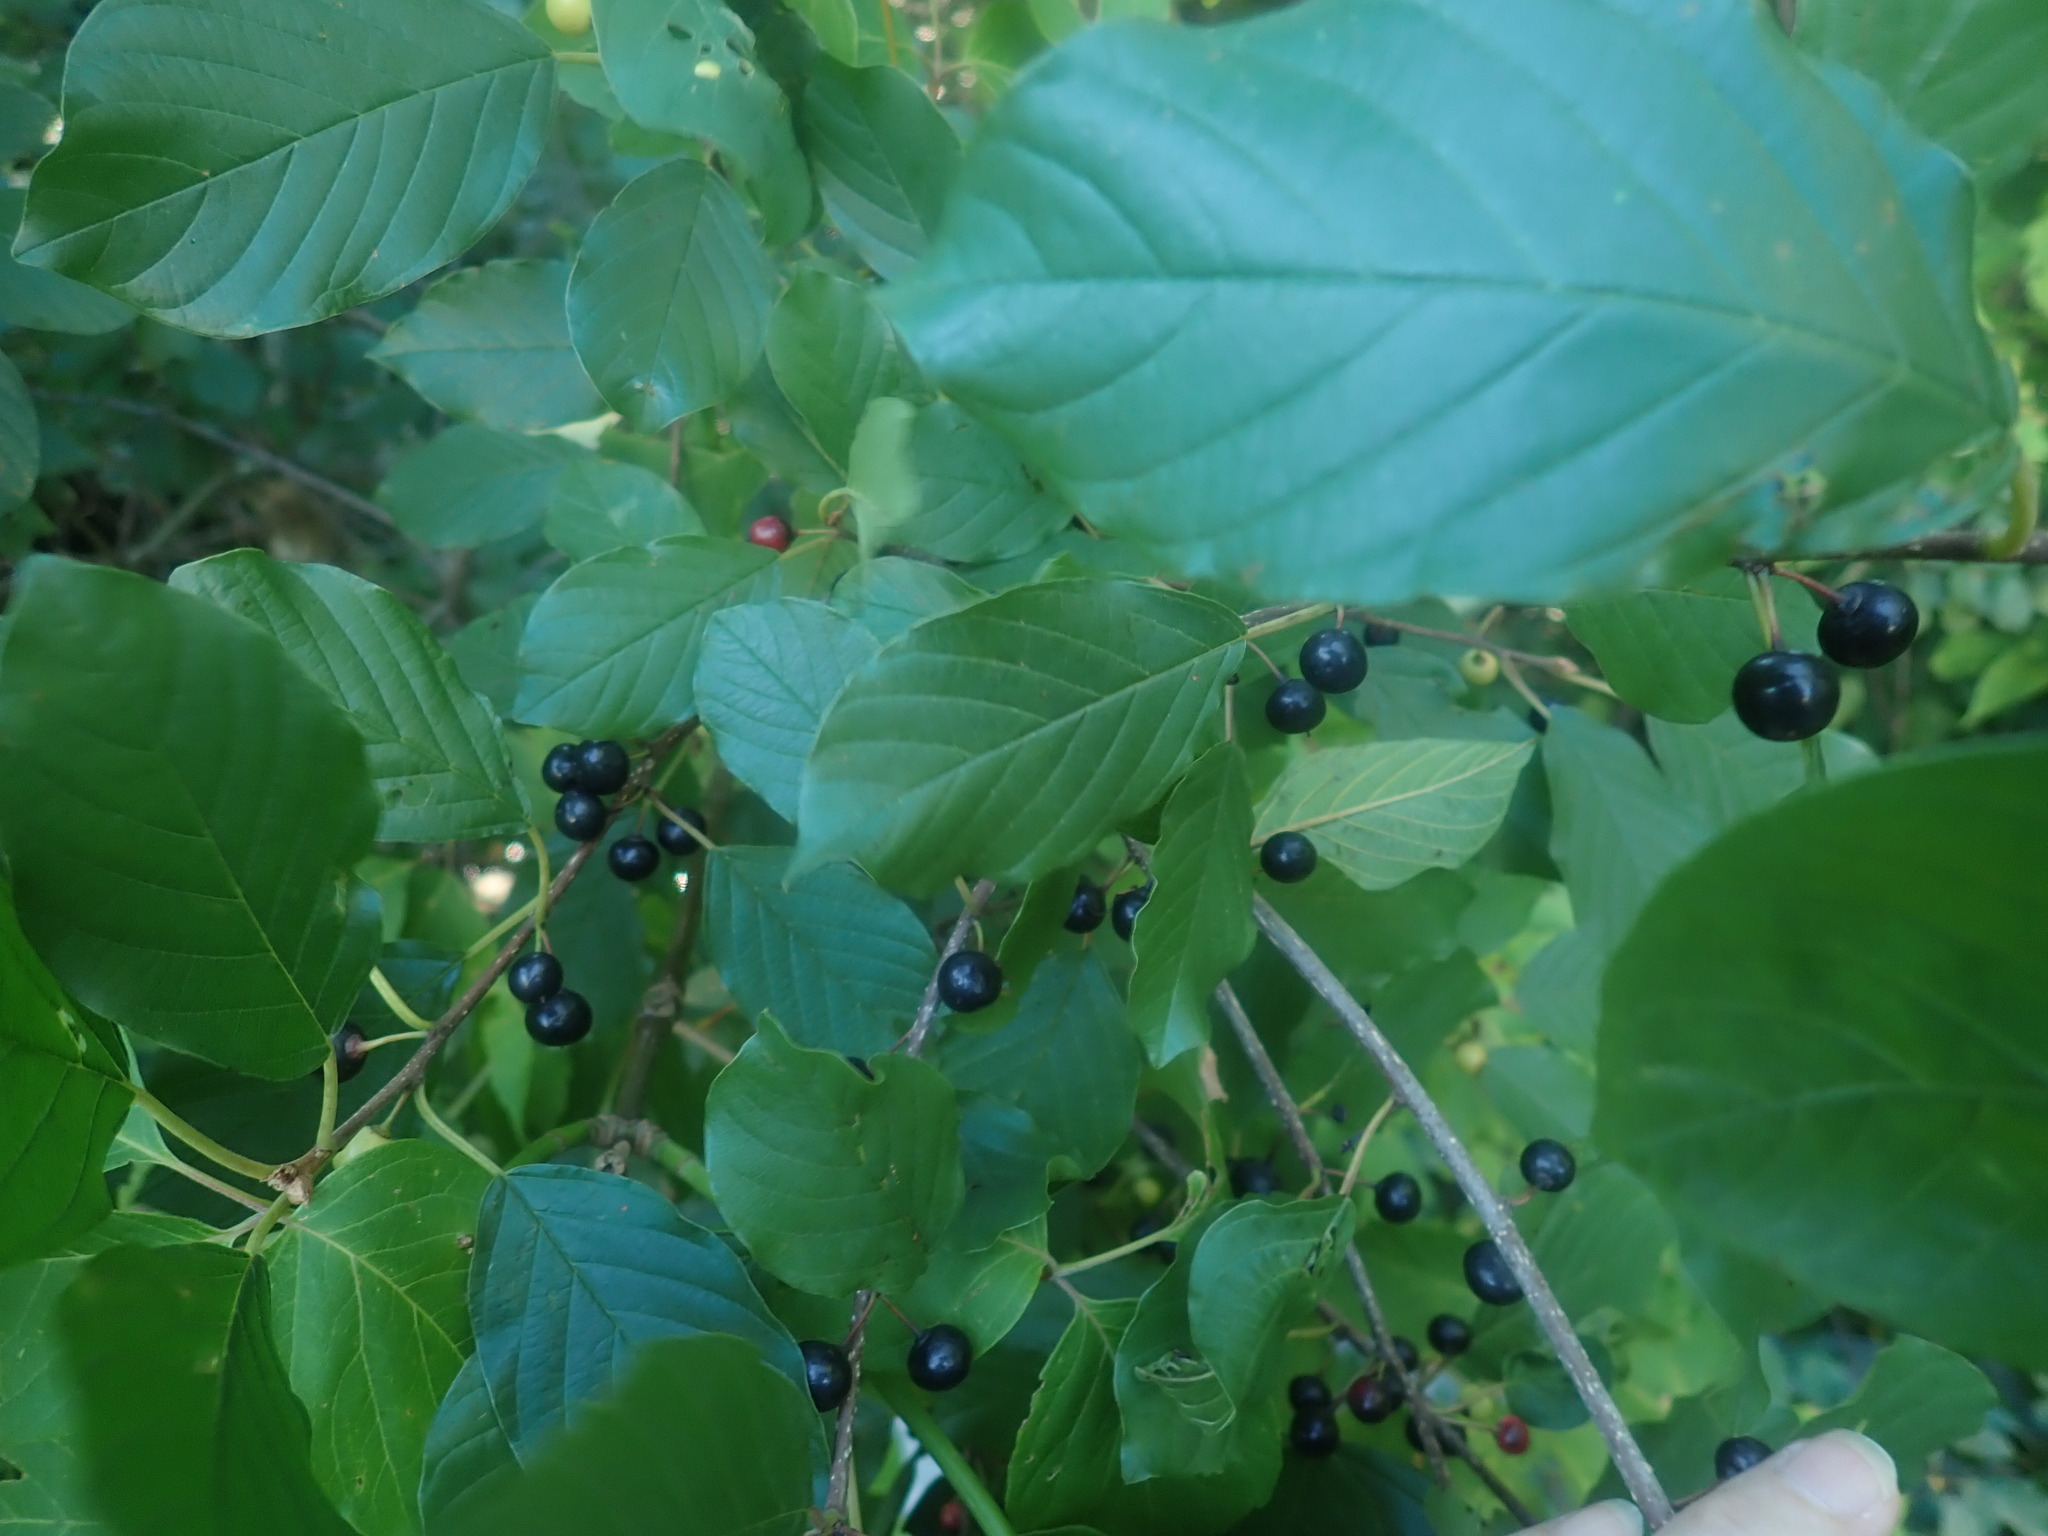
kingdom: Plantae
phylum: Tracheophyta
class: Magnoliopsida
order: Rosales
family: Rhamnaceae
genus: Frangula
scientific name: Frangula alnus
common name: Alder buckthorn
